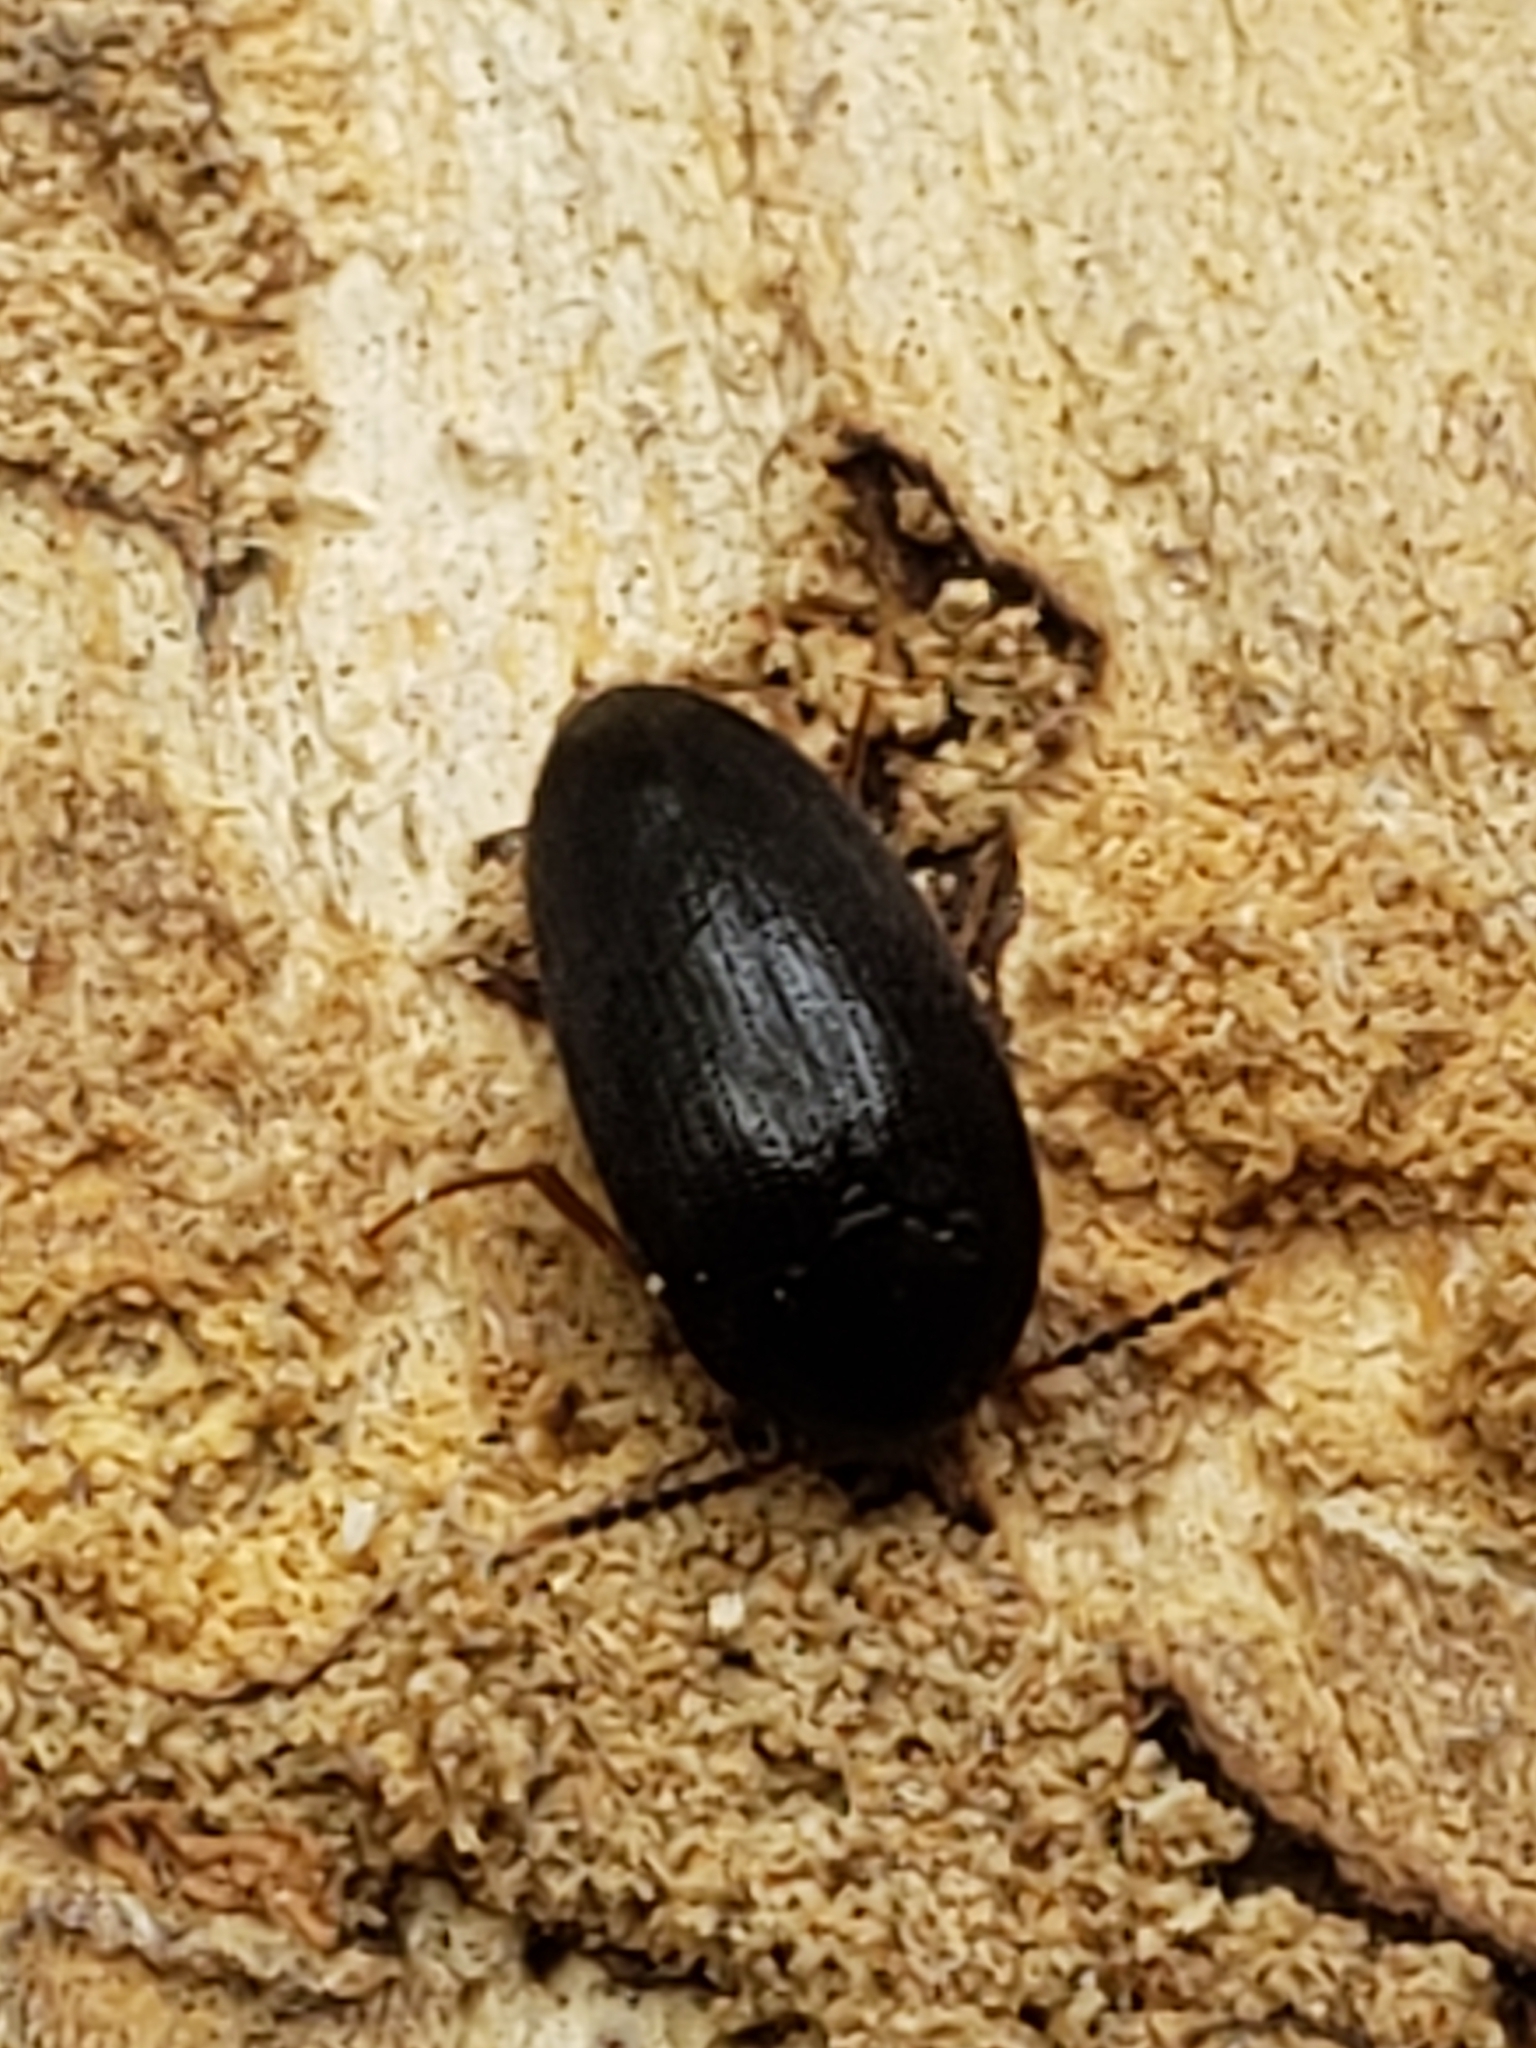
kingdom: Animalia
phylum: Arthropoda
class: Insecta
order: Coleoptera
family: Tetratomidae
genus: Eustrophopsis
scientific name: Eustrophopsis bicolor
